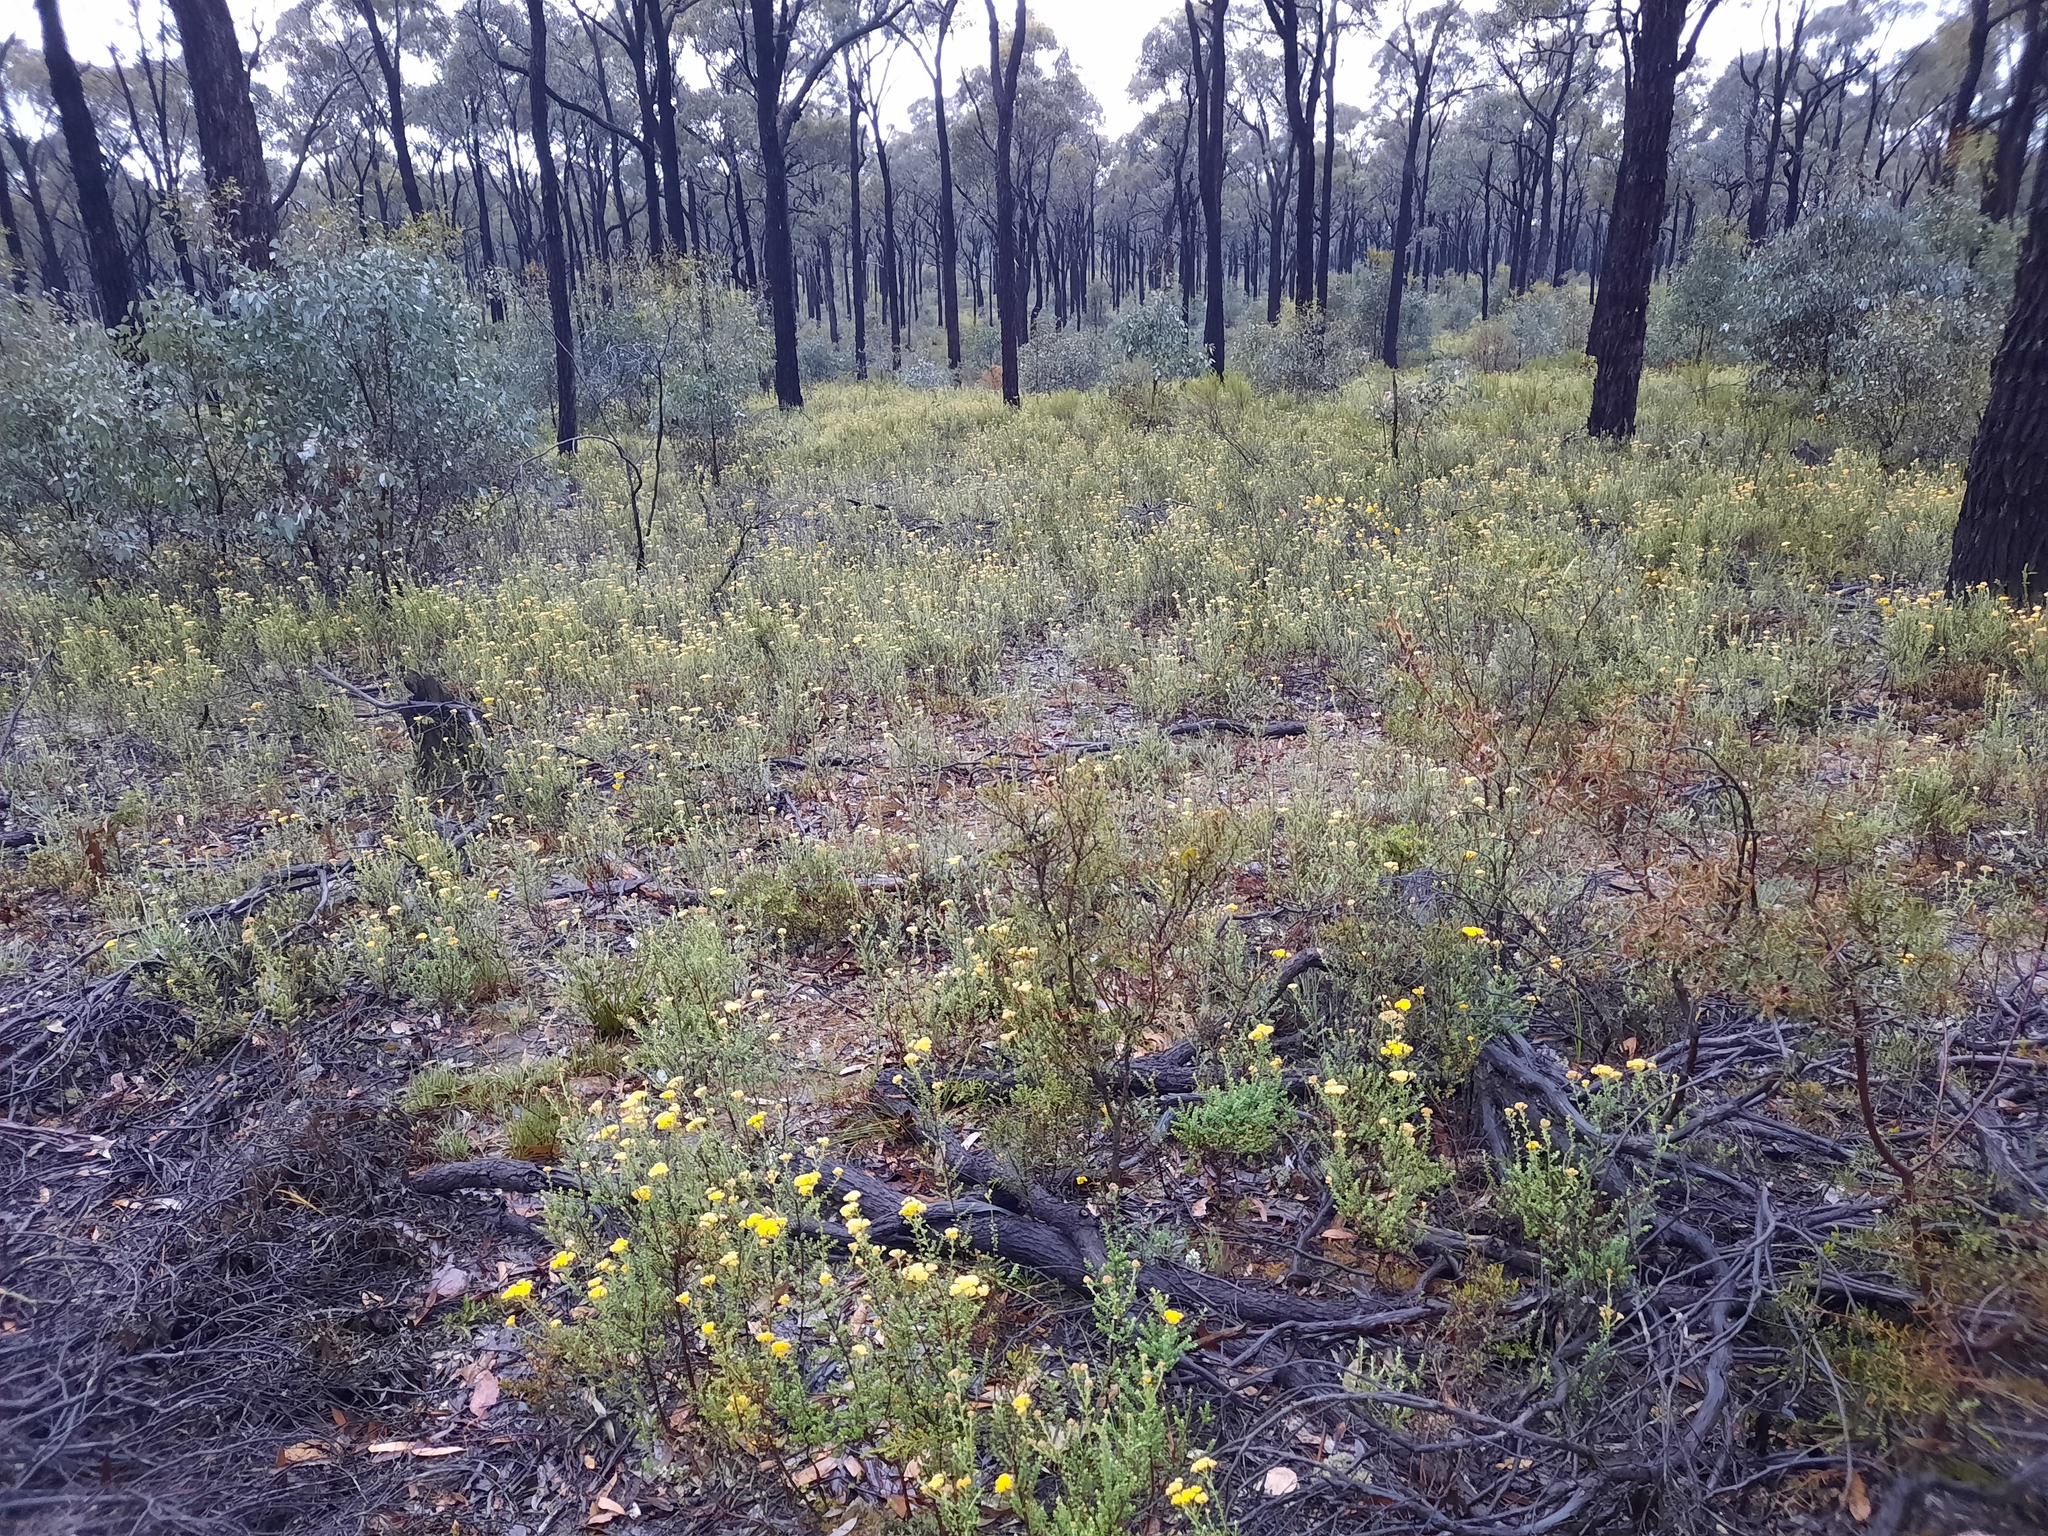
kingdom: Plantae
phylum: Tracheophyta
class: Magnoliopsida
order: Asterales
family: Asteraceae
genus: Ozothamnus
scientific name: Ozothamnus obcordatus
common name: Grey everlasting
